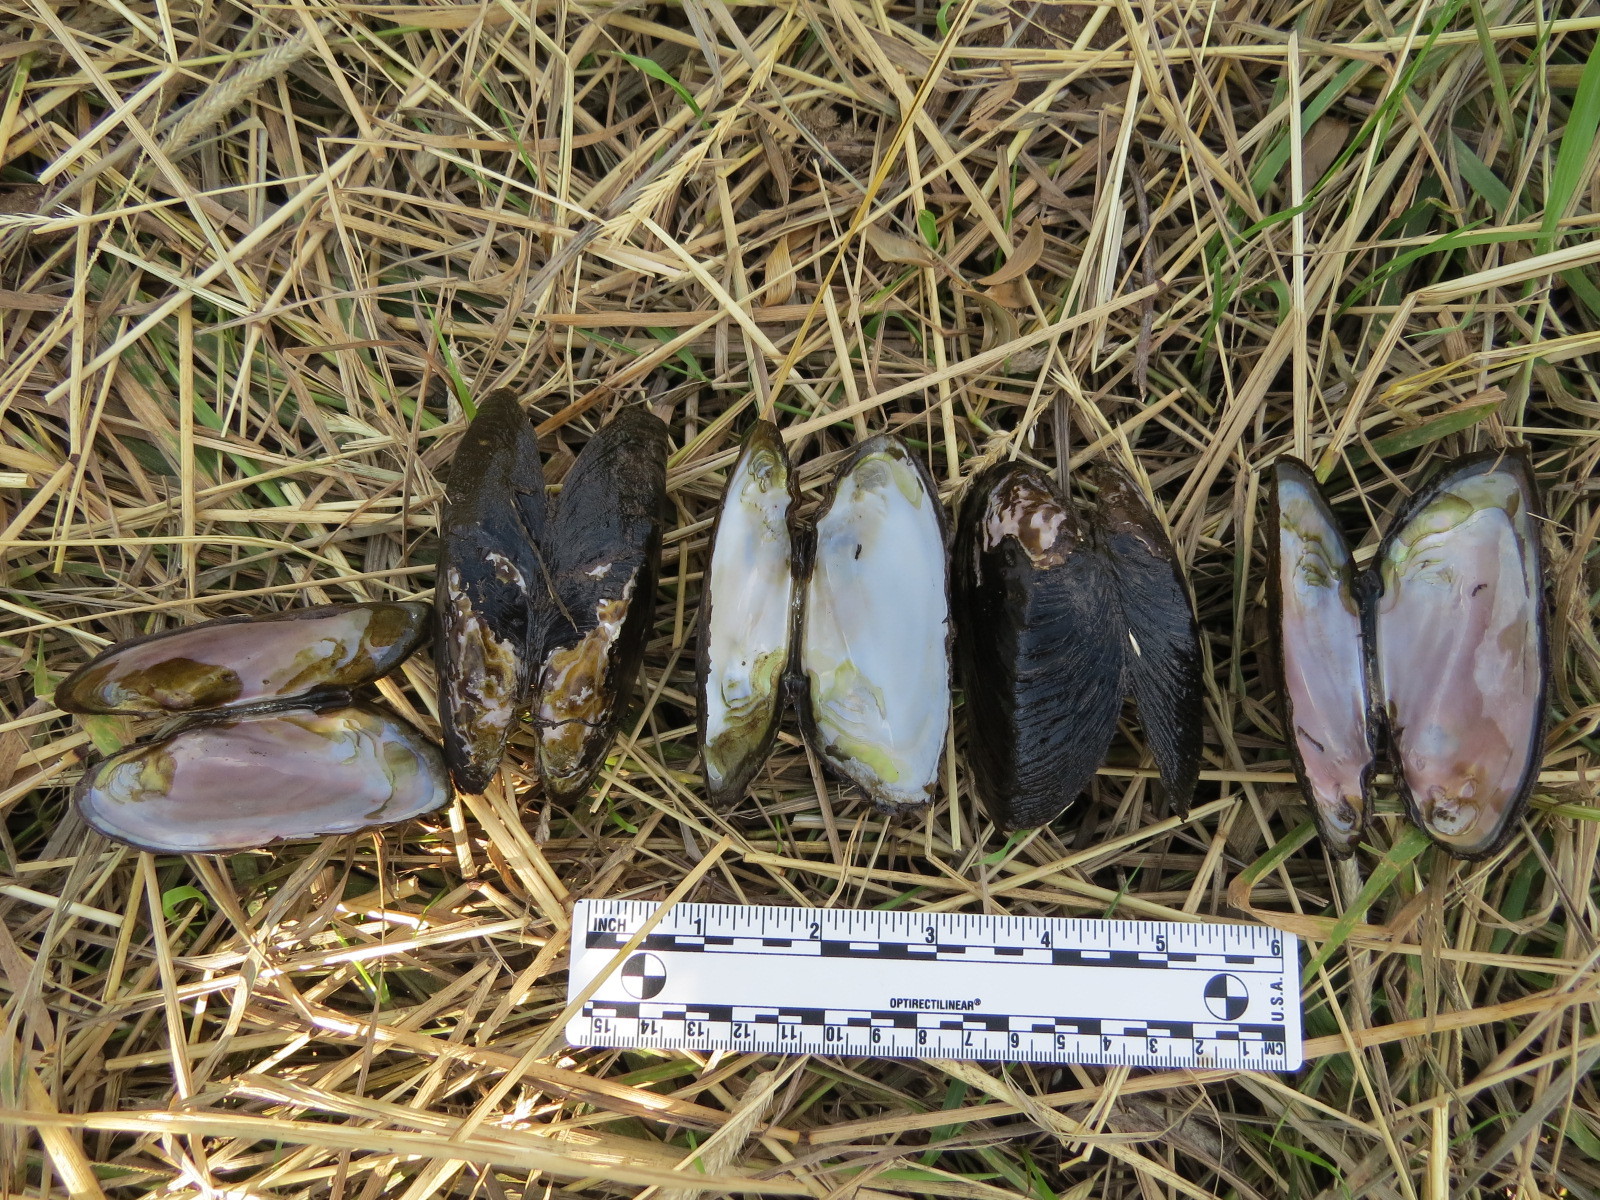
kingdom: Animalia
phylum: Mollusca
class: Bivalvia
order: Unionida
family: Unionidae
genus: Gonidea
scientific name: Gonidea angulata
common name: Western ridged mussel
